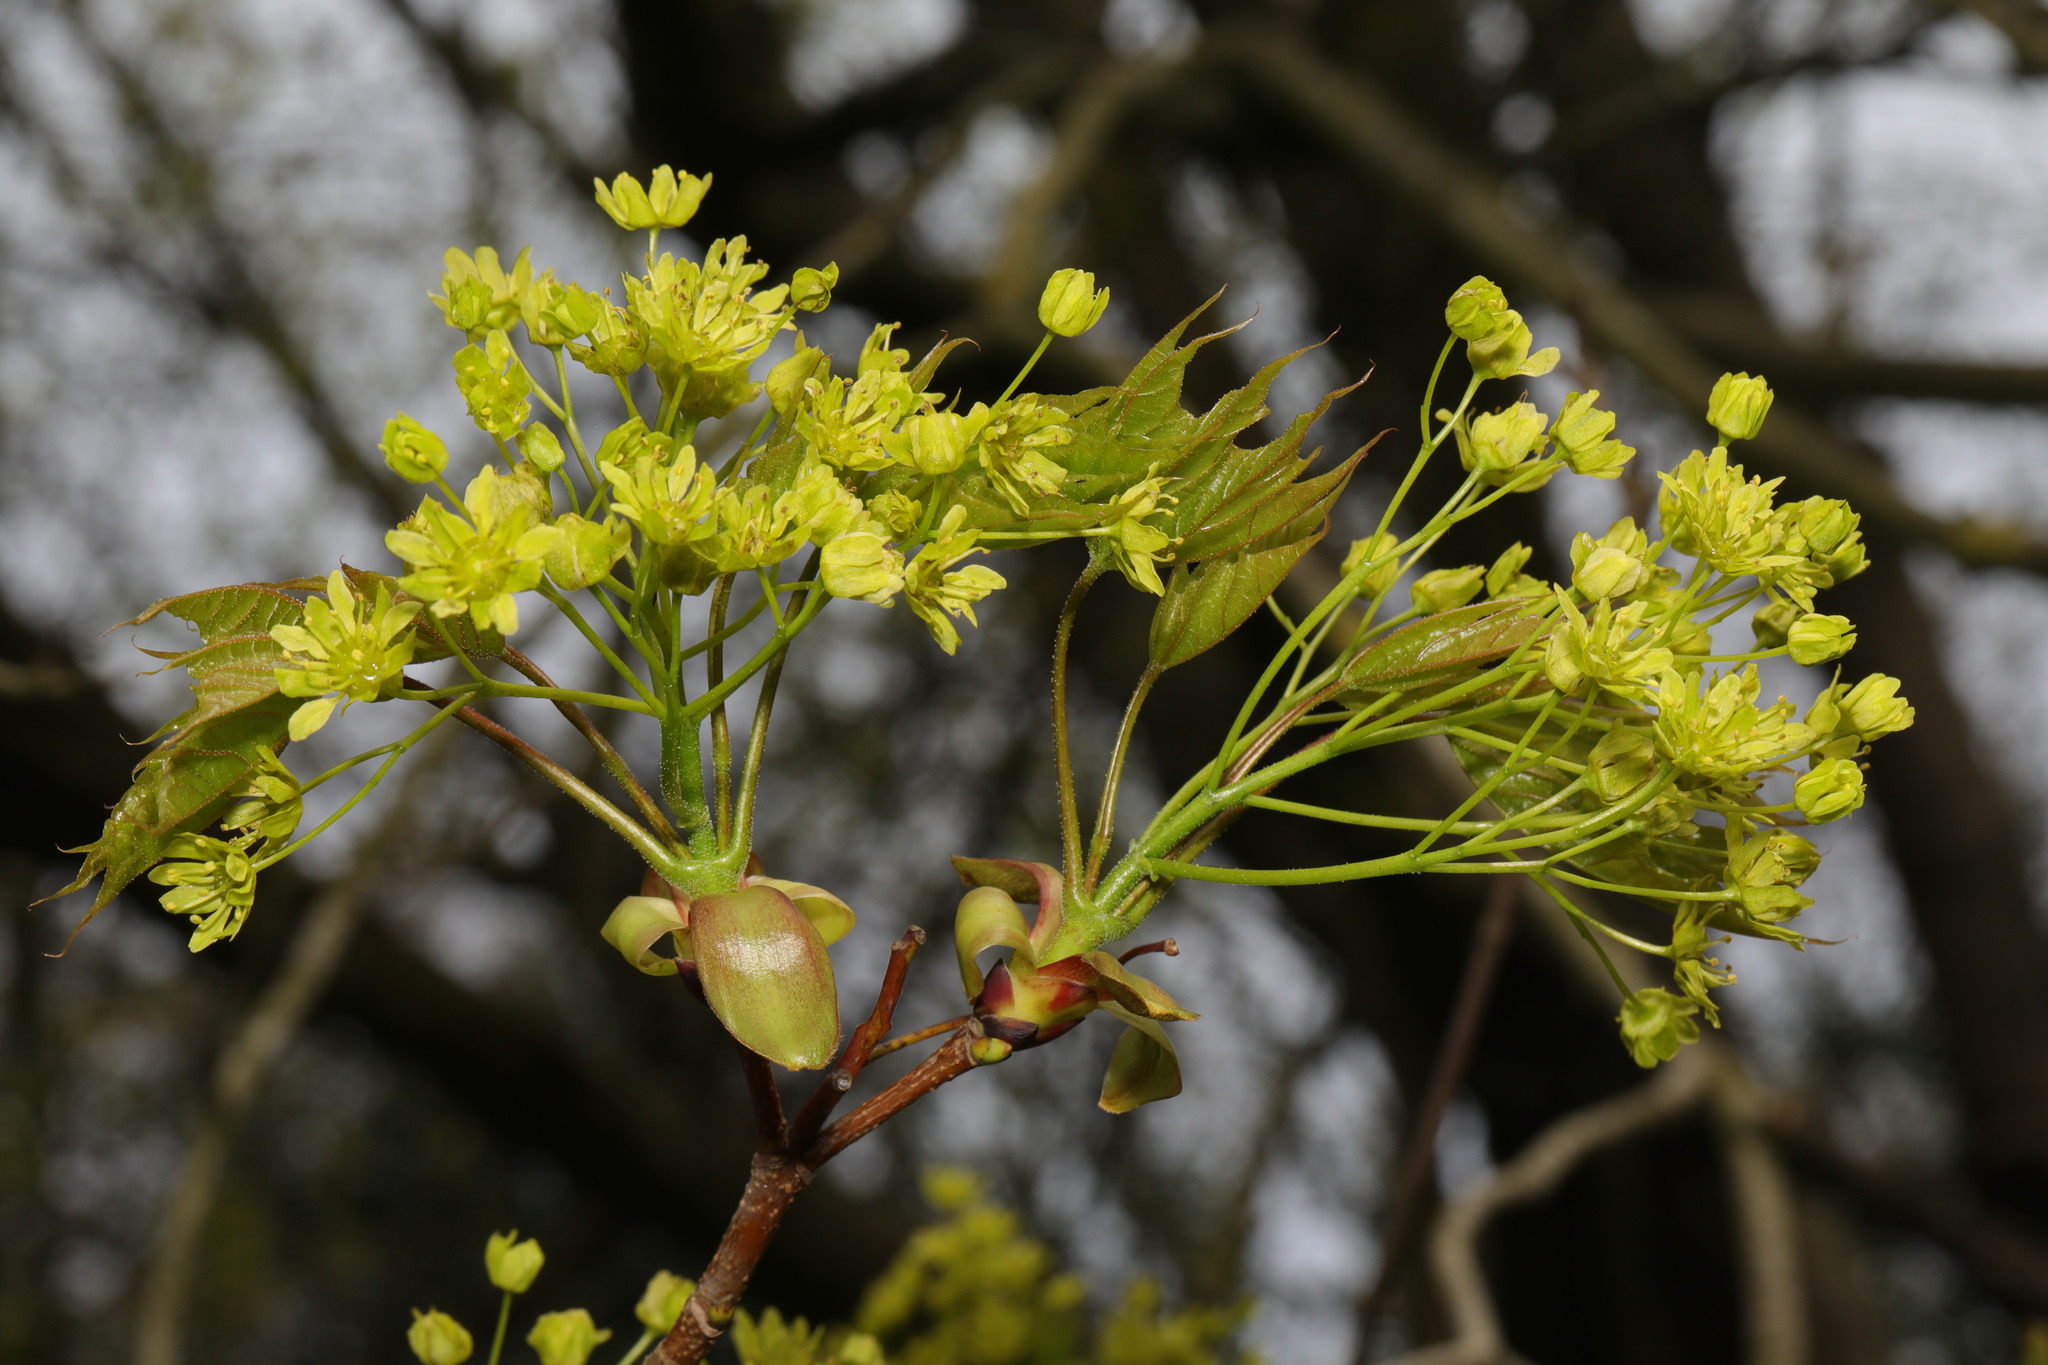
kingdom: Plantae
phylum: Tracheophyta
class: Magnoliopsida
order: Sapindales
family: Sapindaceae
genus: Acer
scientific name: Acer platanoides
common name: Norway maple
